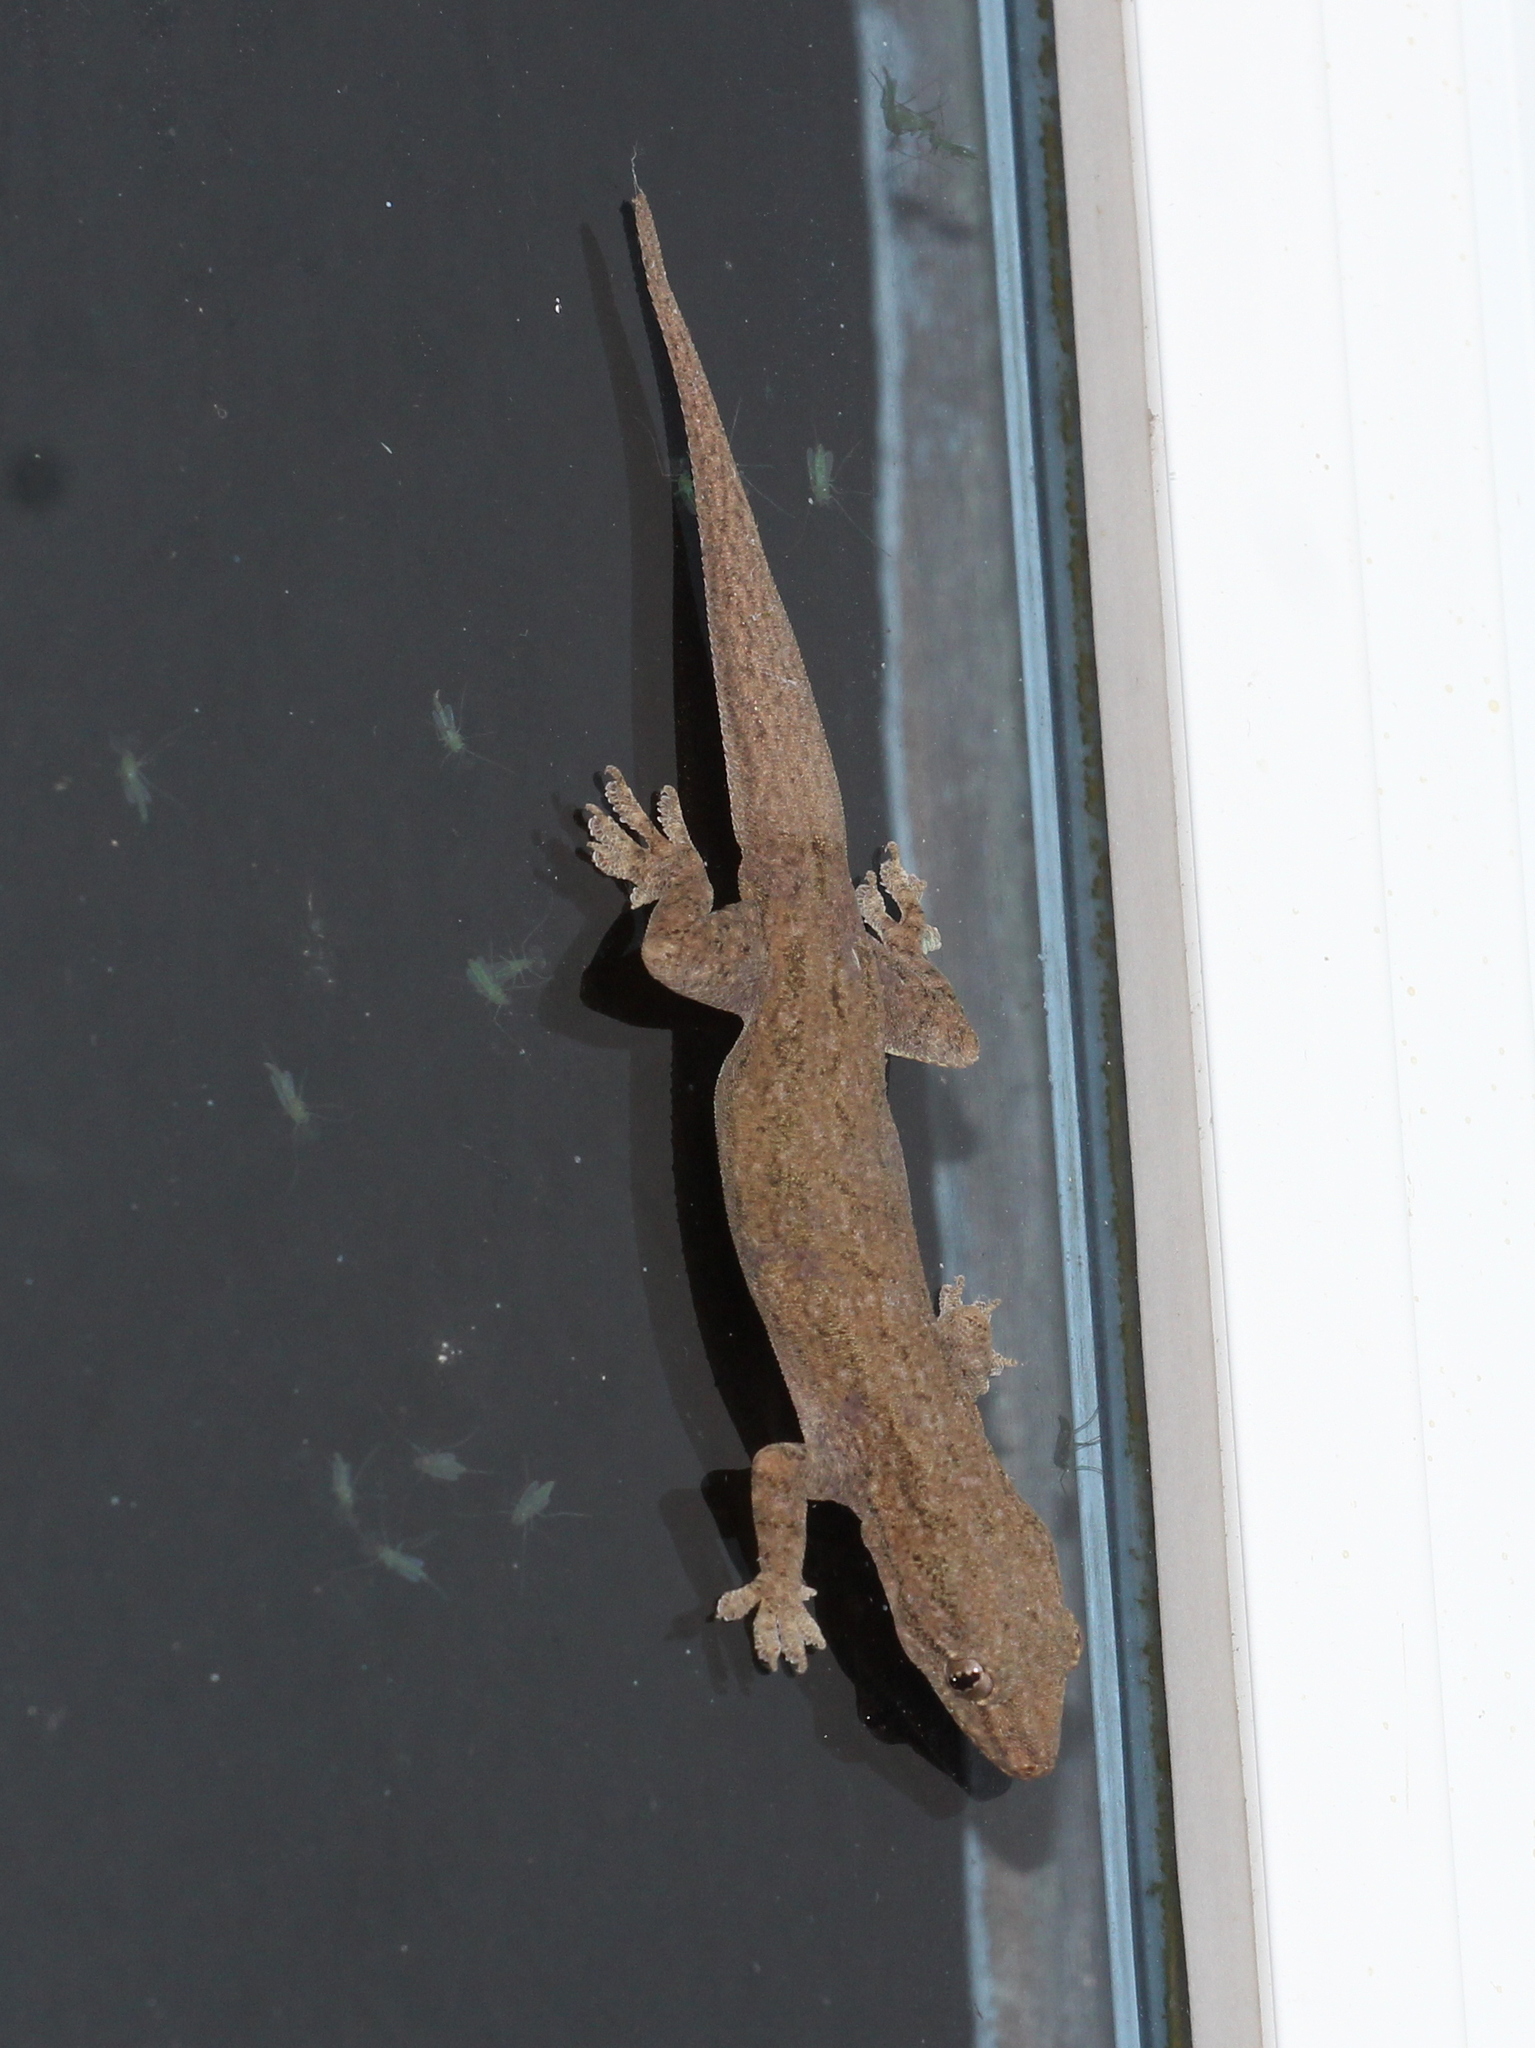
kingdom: Animalia
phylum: Chordata
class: Squamata
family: Gekkonidae
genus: Hemidactylus
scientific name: Hemidactylus frenatus
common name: Common house gecko
